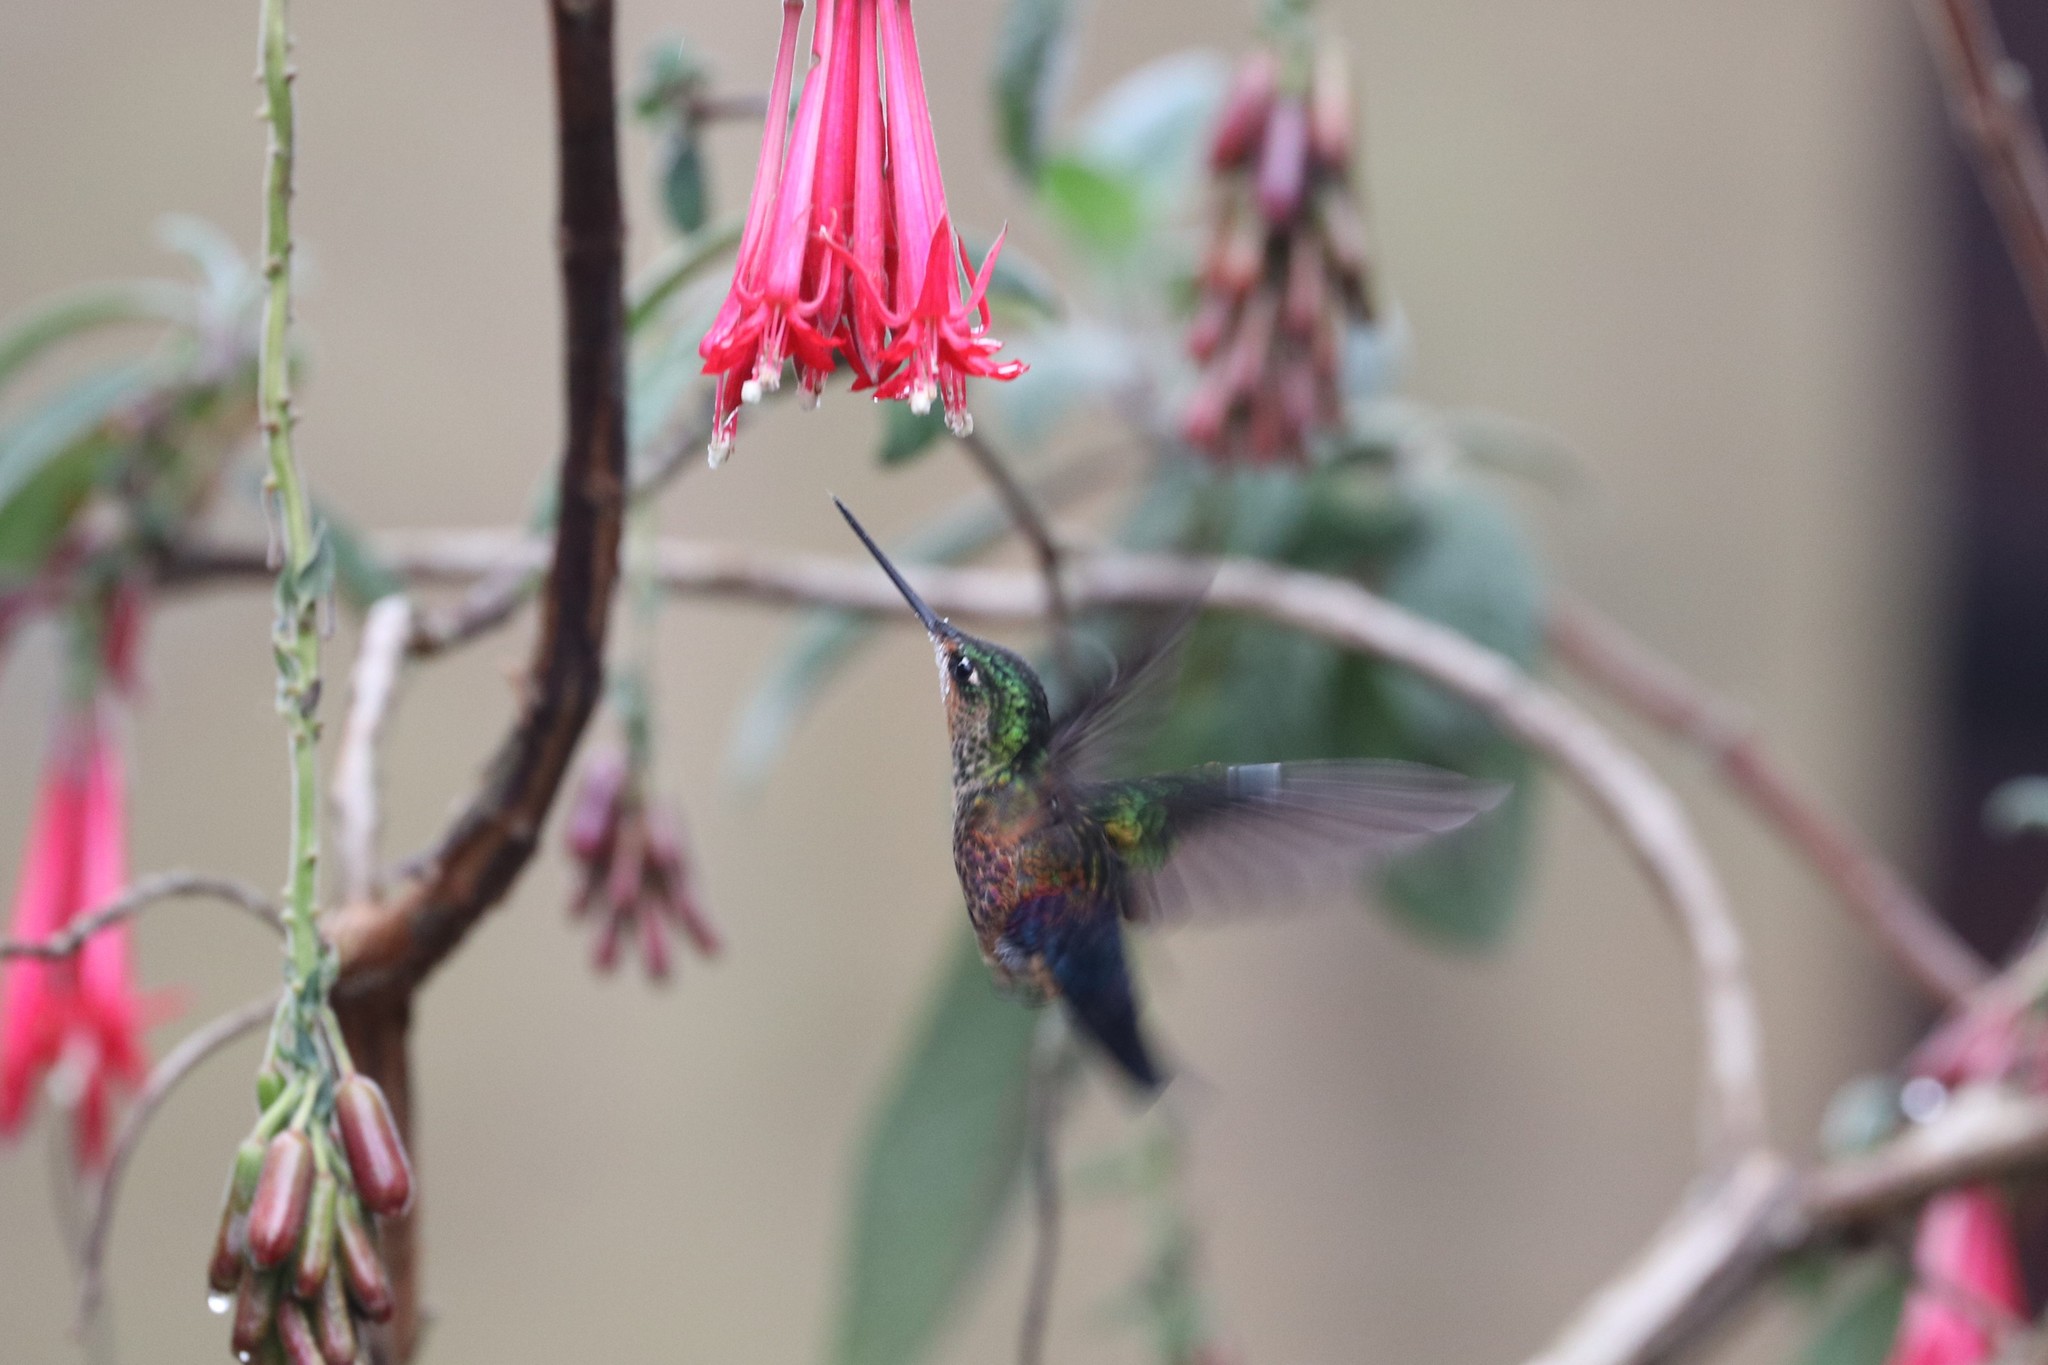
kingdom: Animalia
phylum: Chordata
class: Aves
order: Apodiformes
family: Trochilidae
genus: Coeligena
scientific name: Coeligena helianthea
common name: Blue-throated starfrontlet
